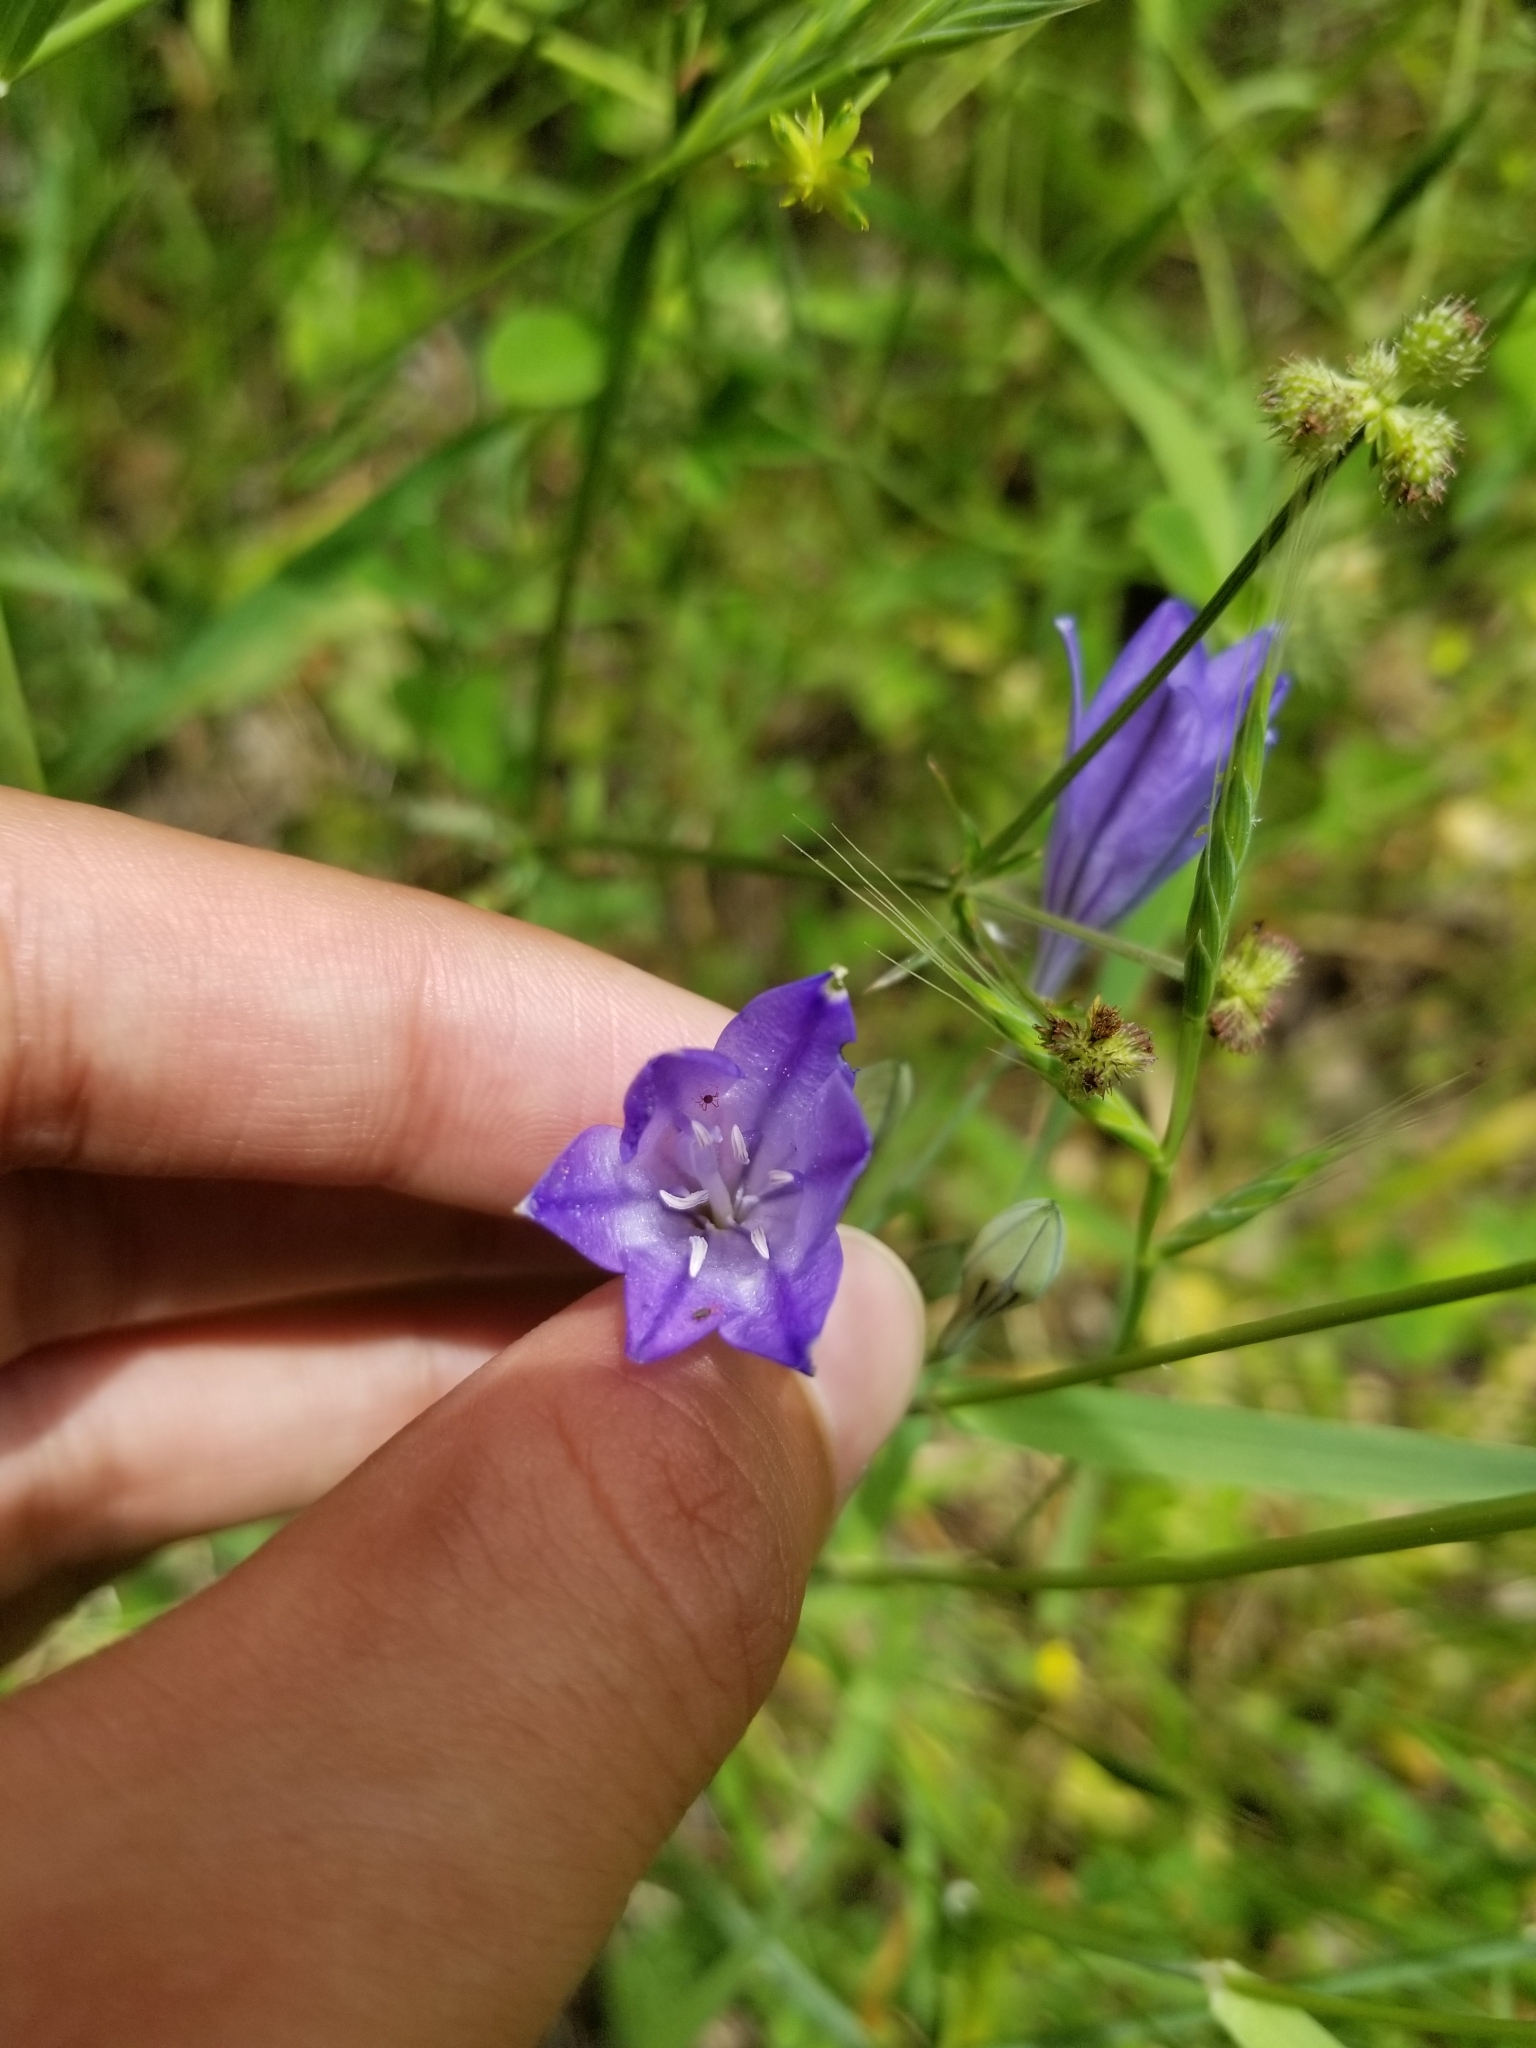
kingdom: Plantae
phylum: Tracheophyta
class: Liliopsida
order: Asparagales
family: Asparagaceae
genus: Triteleia
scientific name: Triteleia laxa
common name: Triplet-lily
